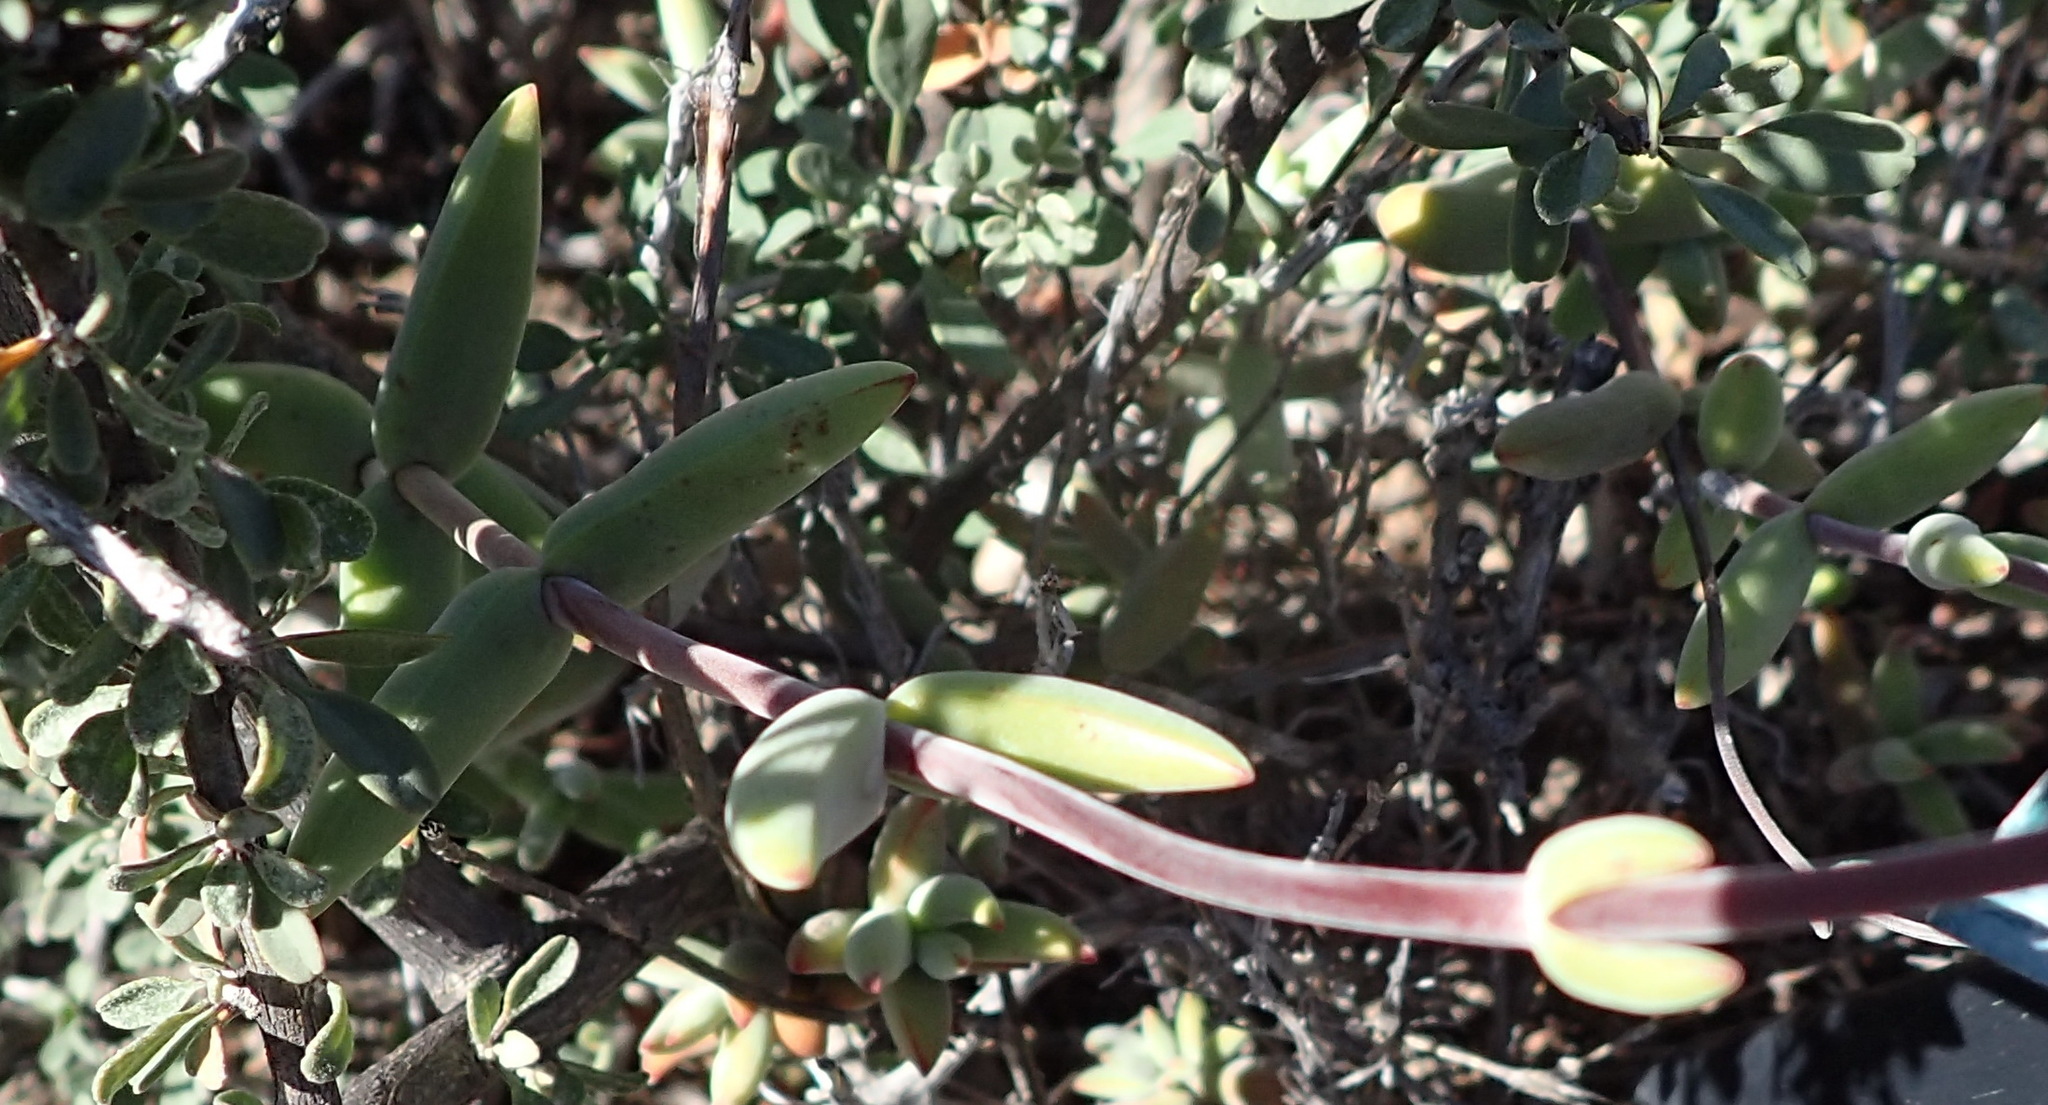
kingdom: Plantae
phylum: Tracheophyta
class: Magnoliopsida
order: Saxifragales
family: Crassulaceae
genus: Crassula
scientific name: Crassula subaphylla
